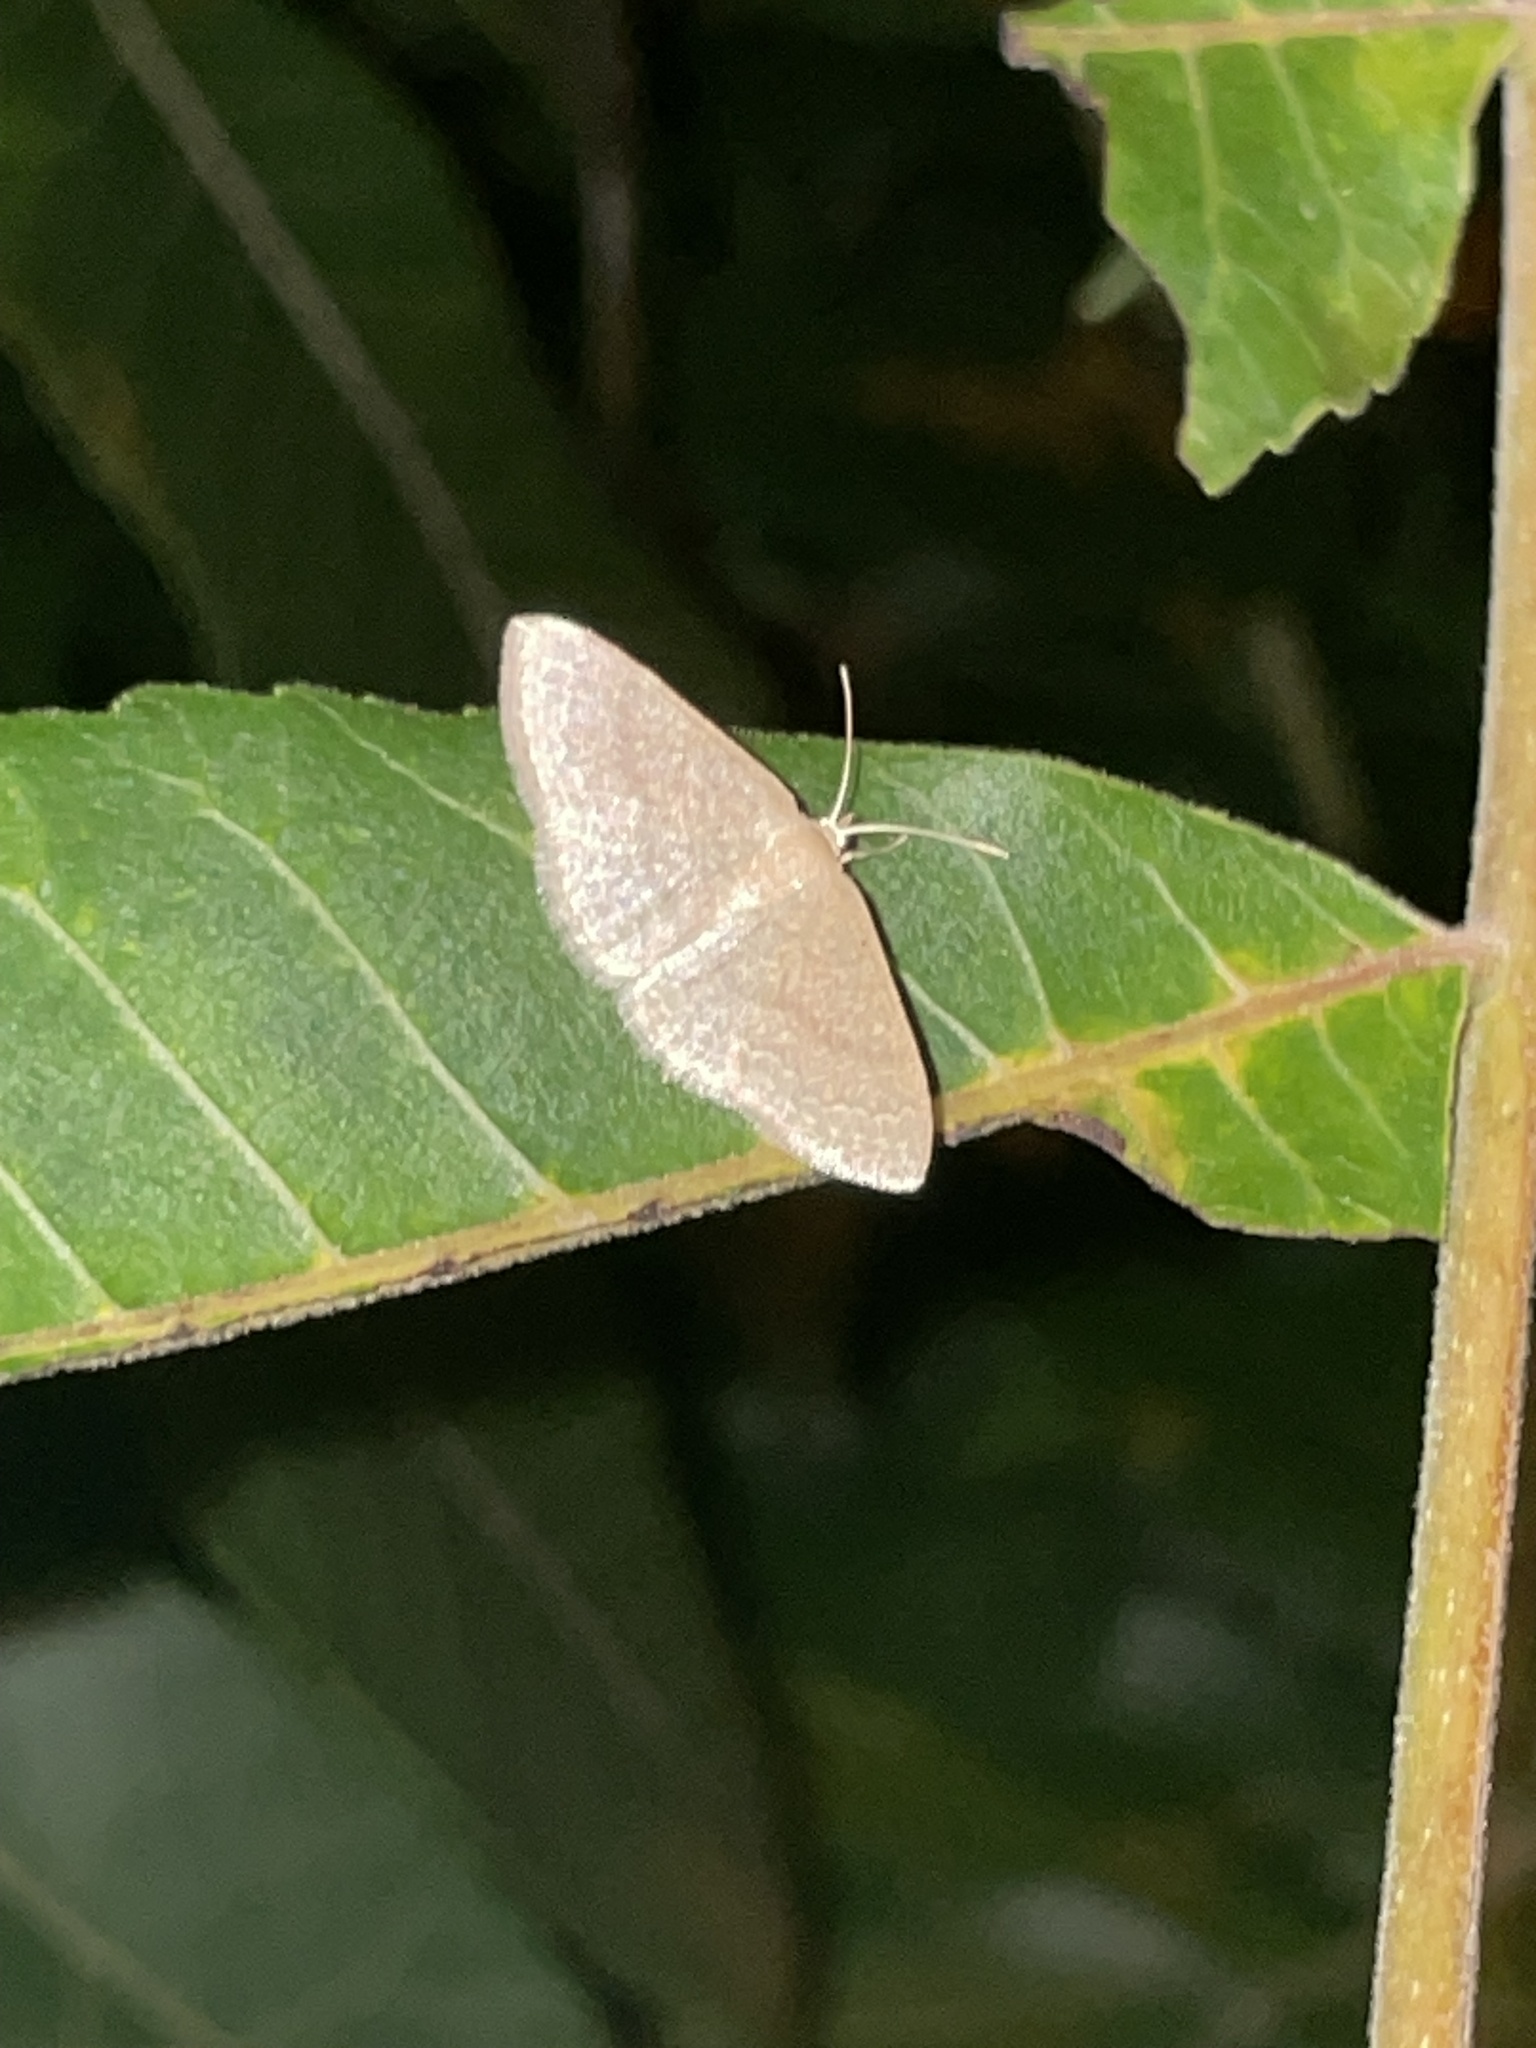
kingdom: Animalia
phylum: Arthropoda
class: Insecta
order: Lepidoptera
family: Geometridae
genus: Pleuroprucha
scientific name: Pleuroprucha insulsaria
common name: Common tan wave
